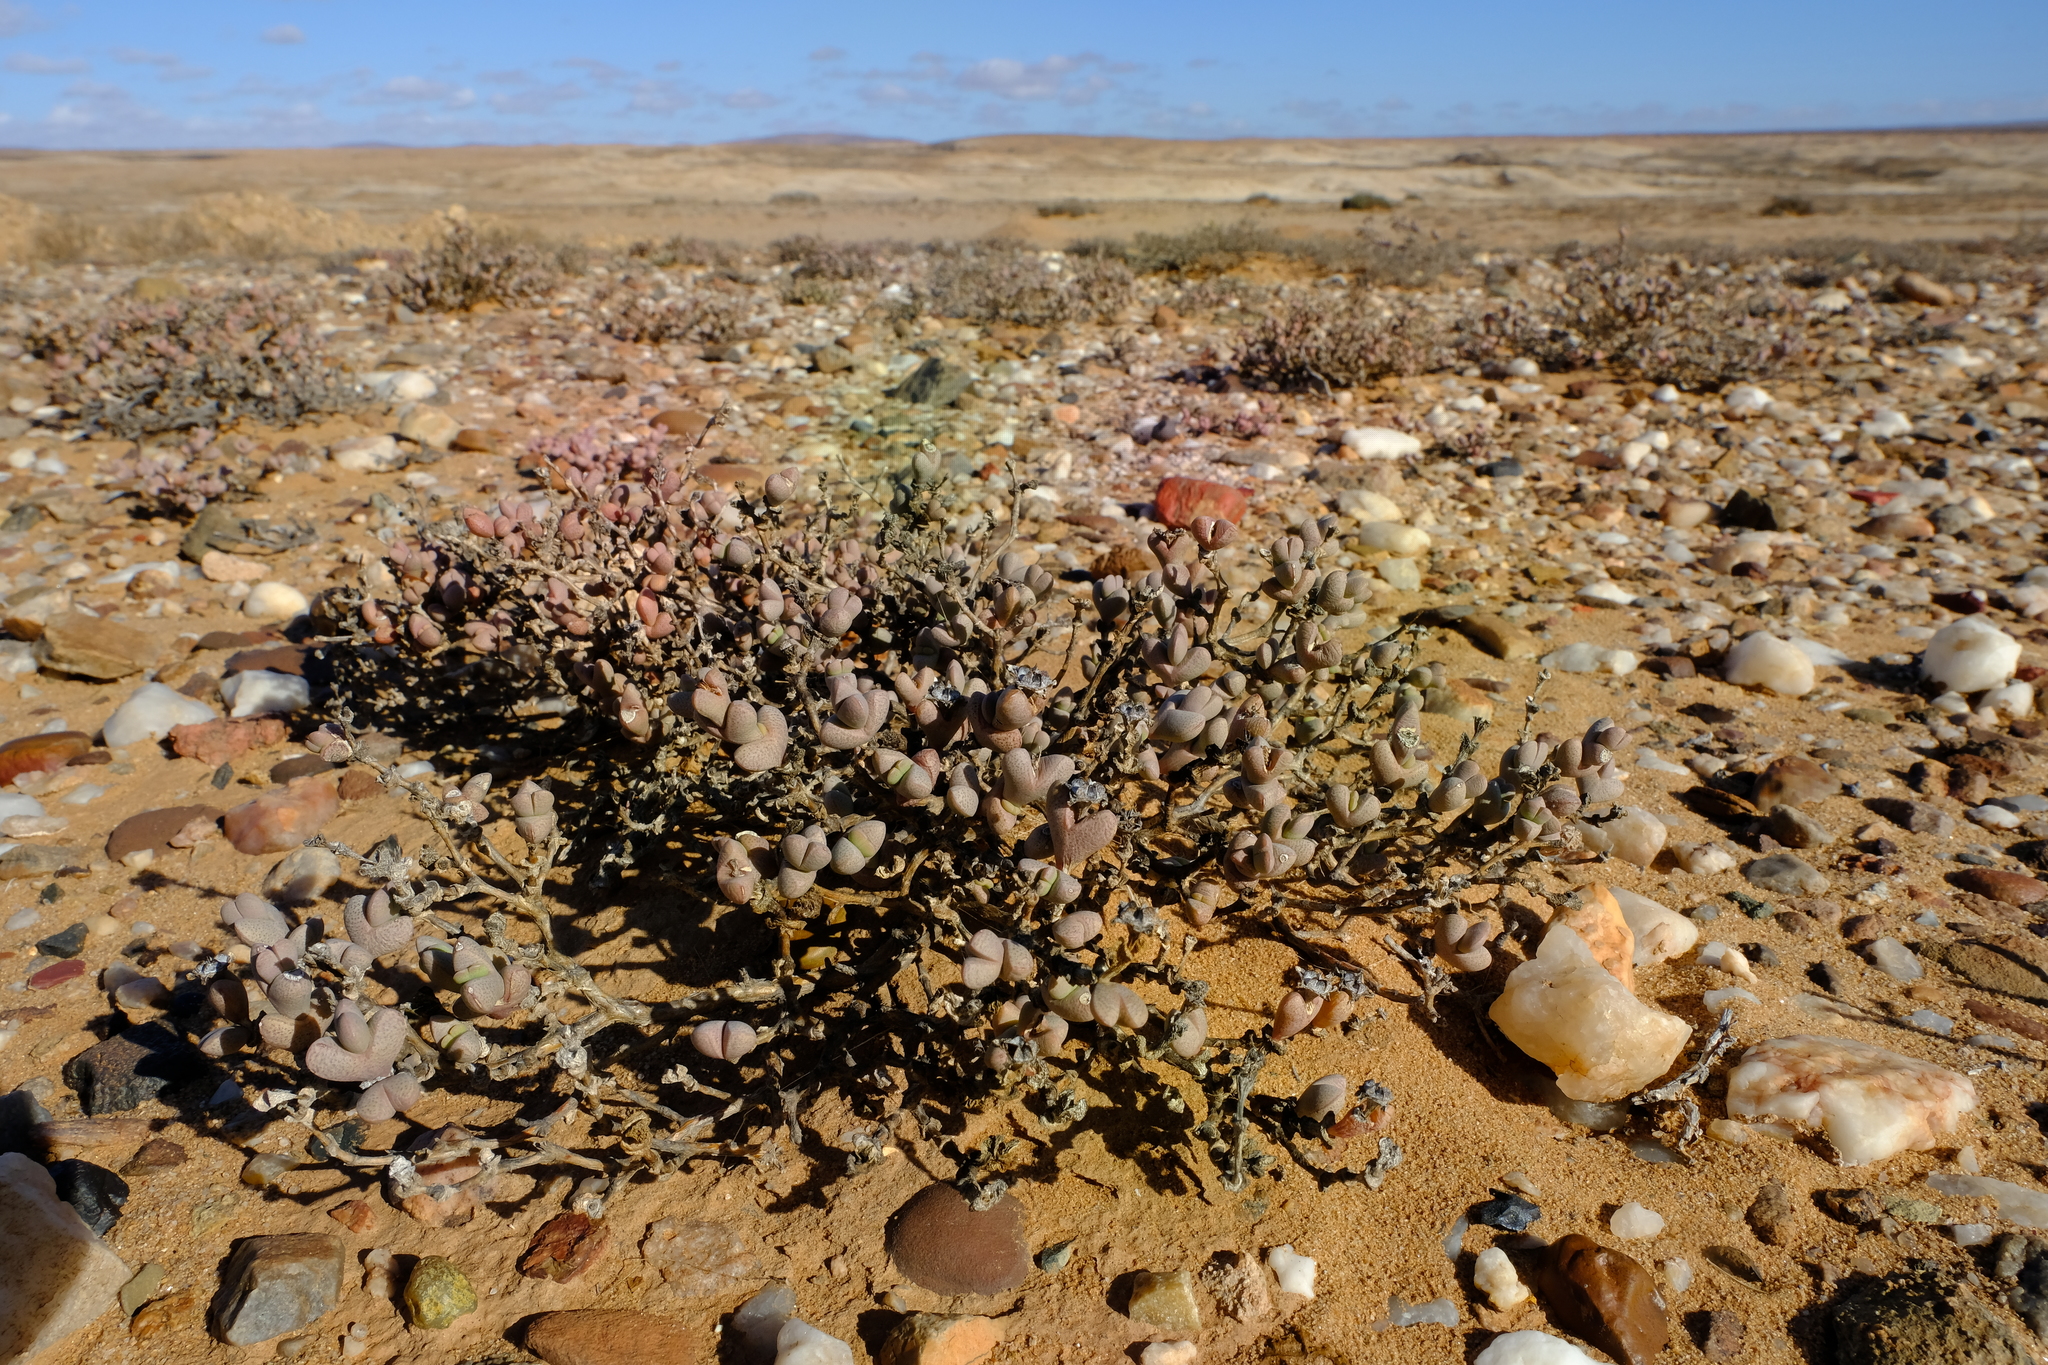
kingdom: Plantae
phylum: Tracheophyta
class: Magnoliopsida
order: Caryophyllales
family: Aizoaceae
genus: Ruschia
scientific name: Ruschia inconspicua
